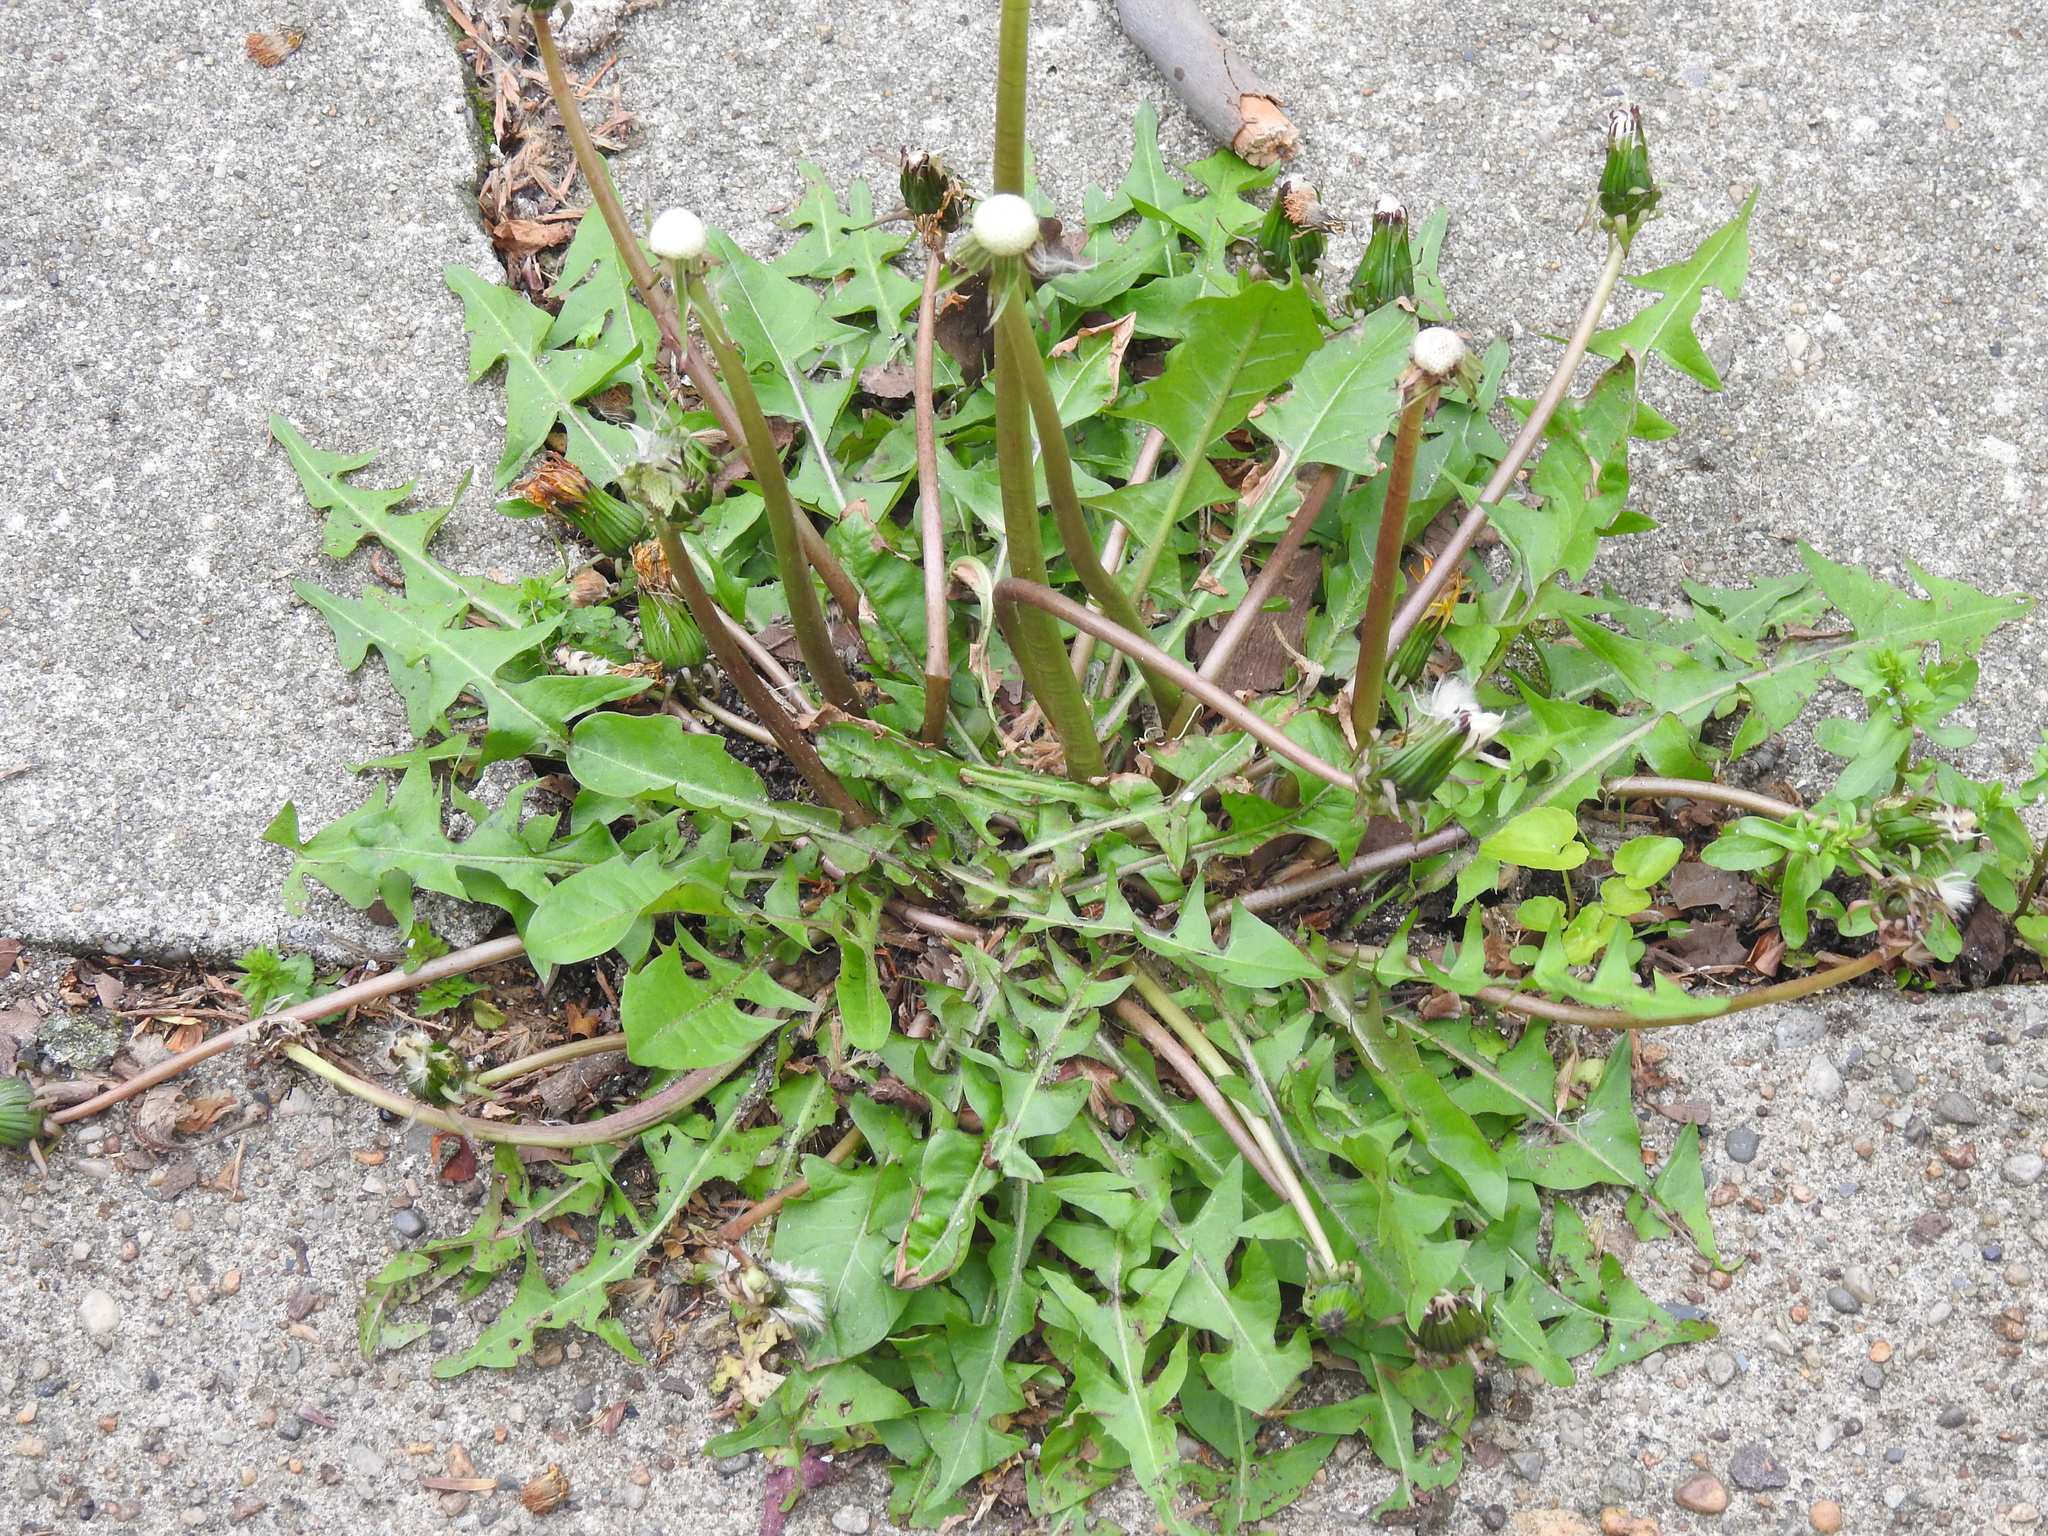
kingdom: Plantae
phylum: Tracheophyta
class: Magnoliopsida
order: Asterales
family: Asteraceae
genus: Taraxacum
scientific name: Taraxacum officinale
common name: Common dandelion
